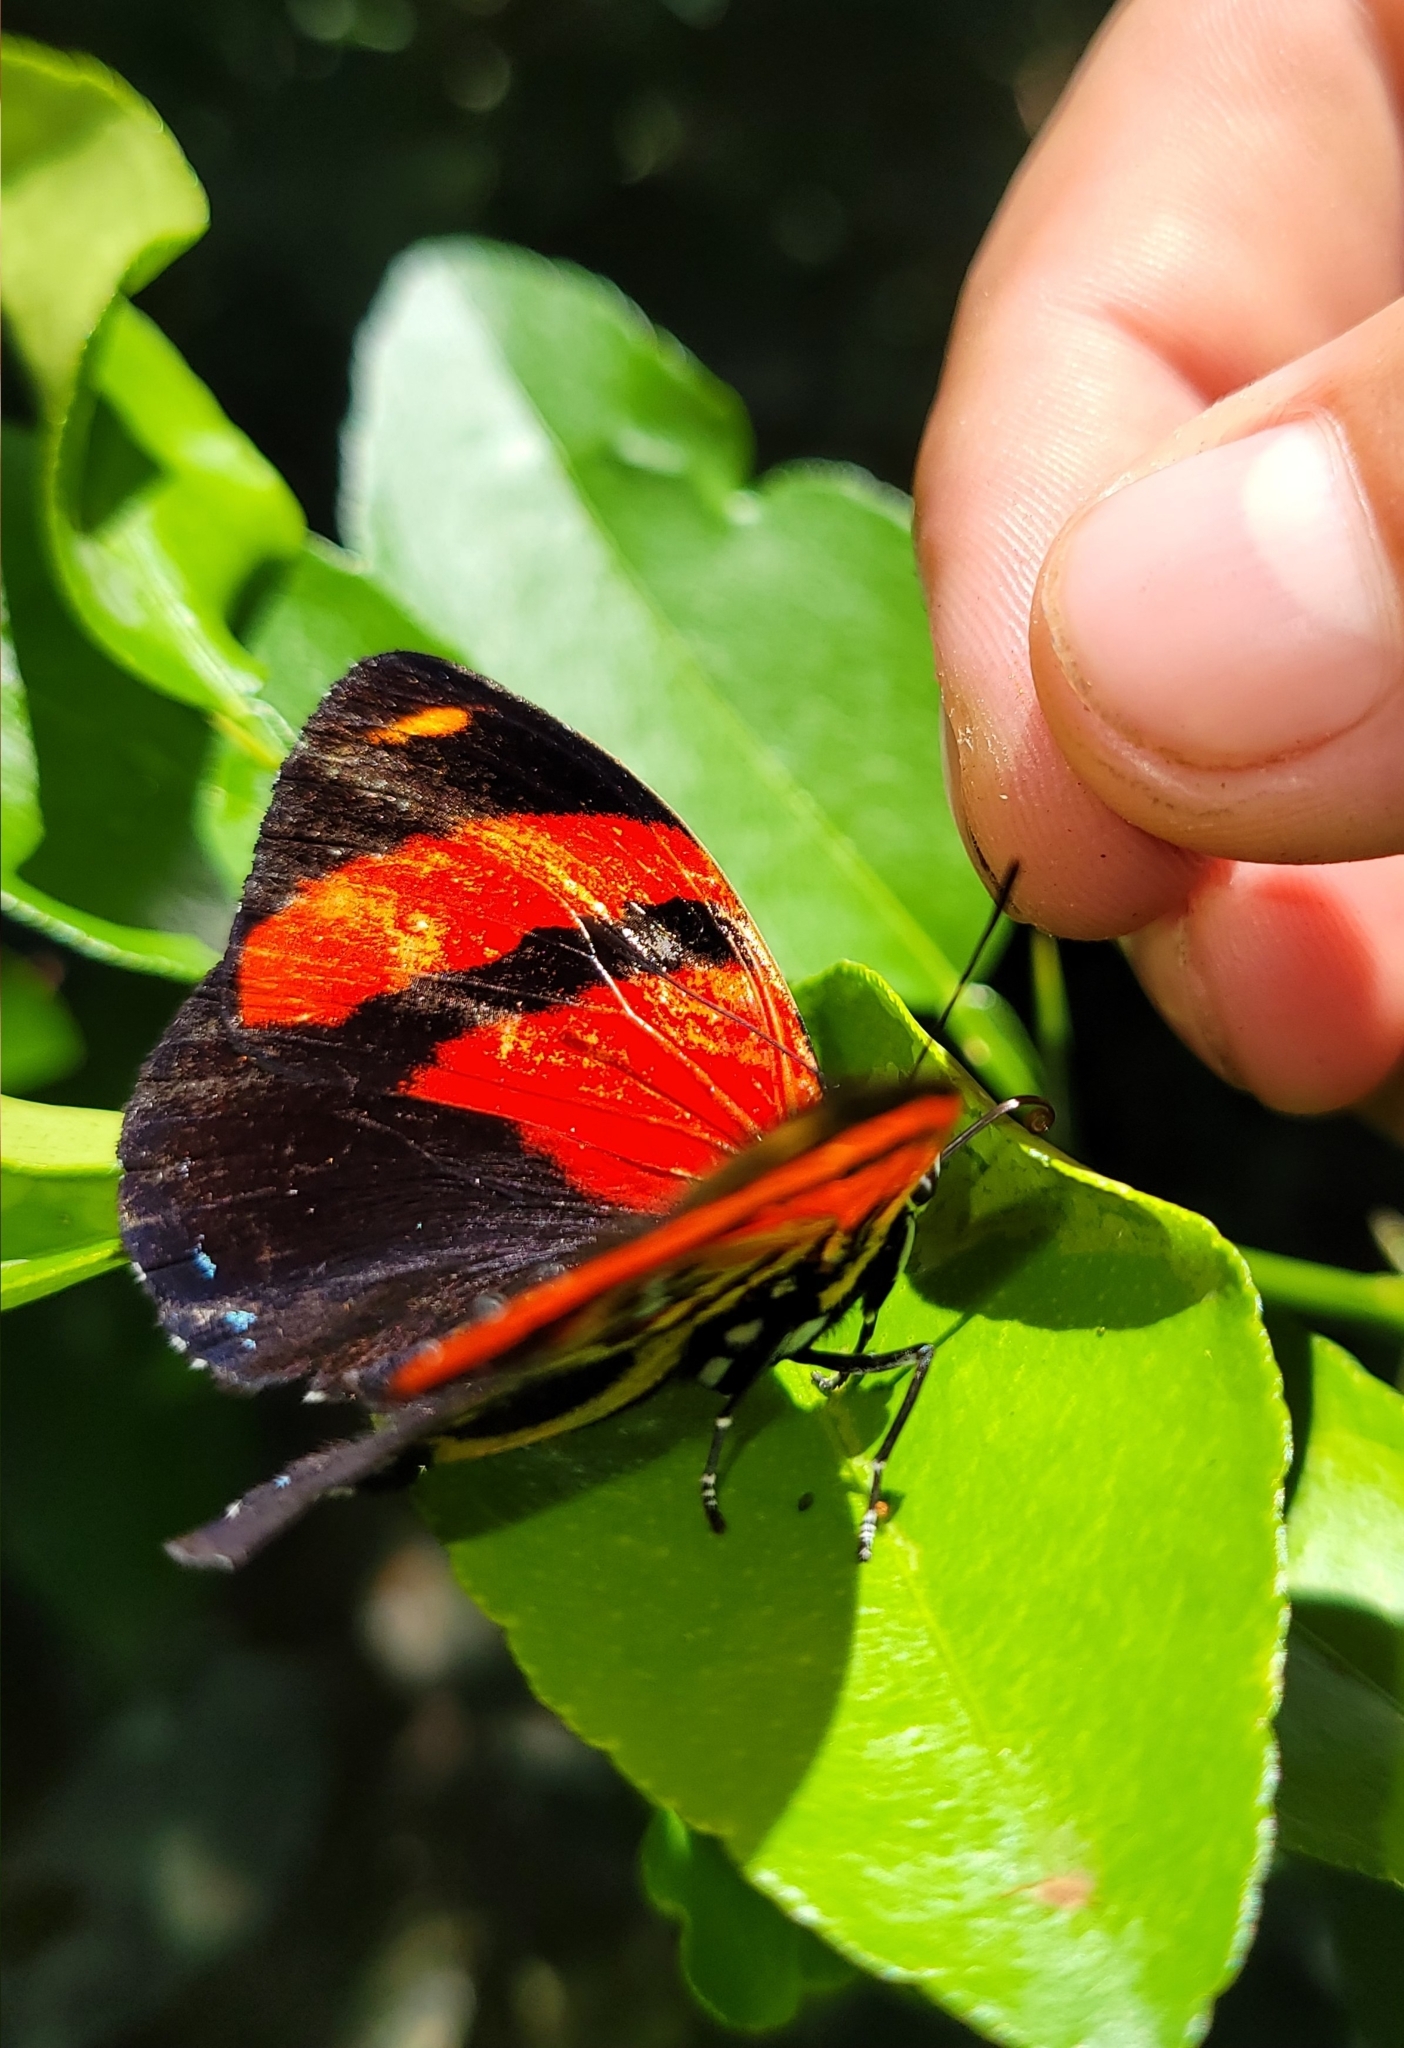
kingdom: Animalia
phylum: Arthropoda
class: Insecta
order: Lepidoptera
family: Nymphalidae
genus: Catagramma
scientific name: Catagramma cynosura
